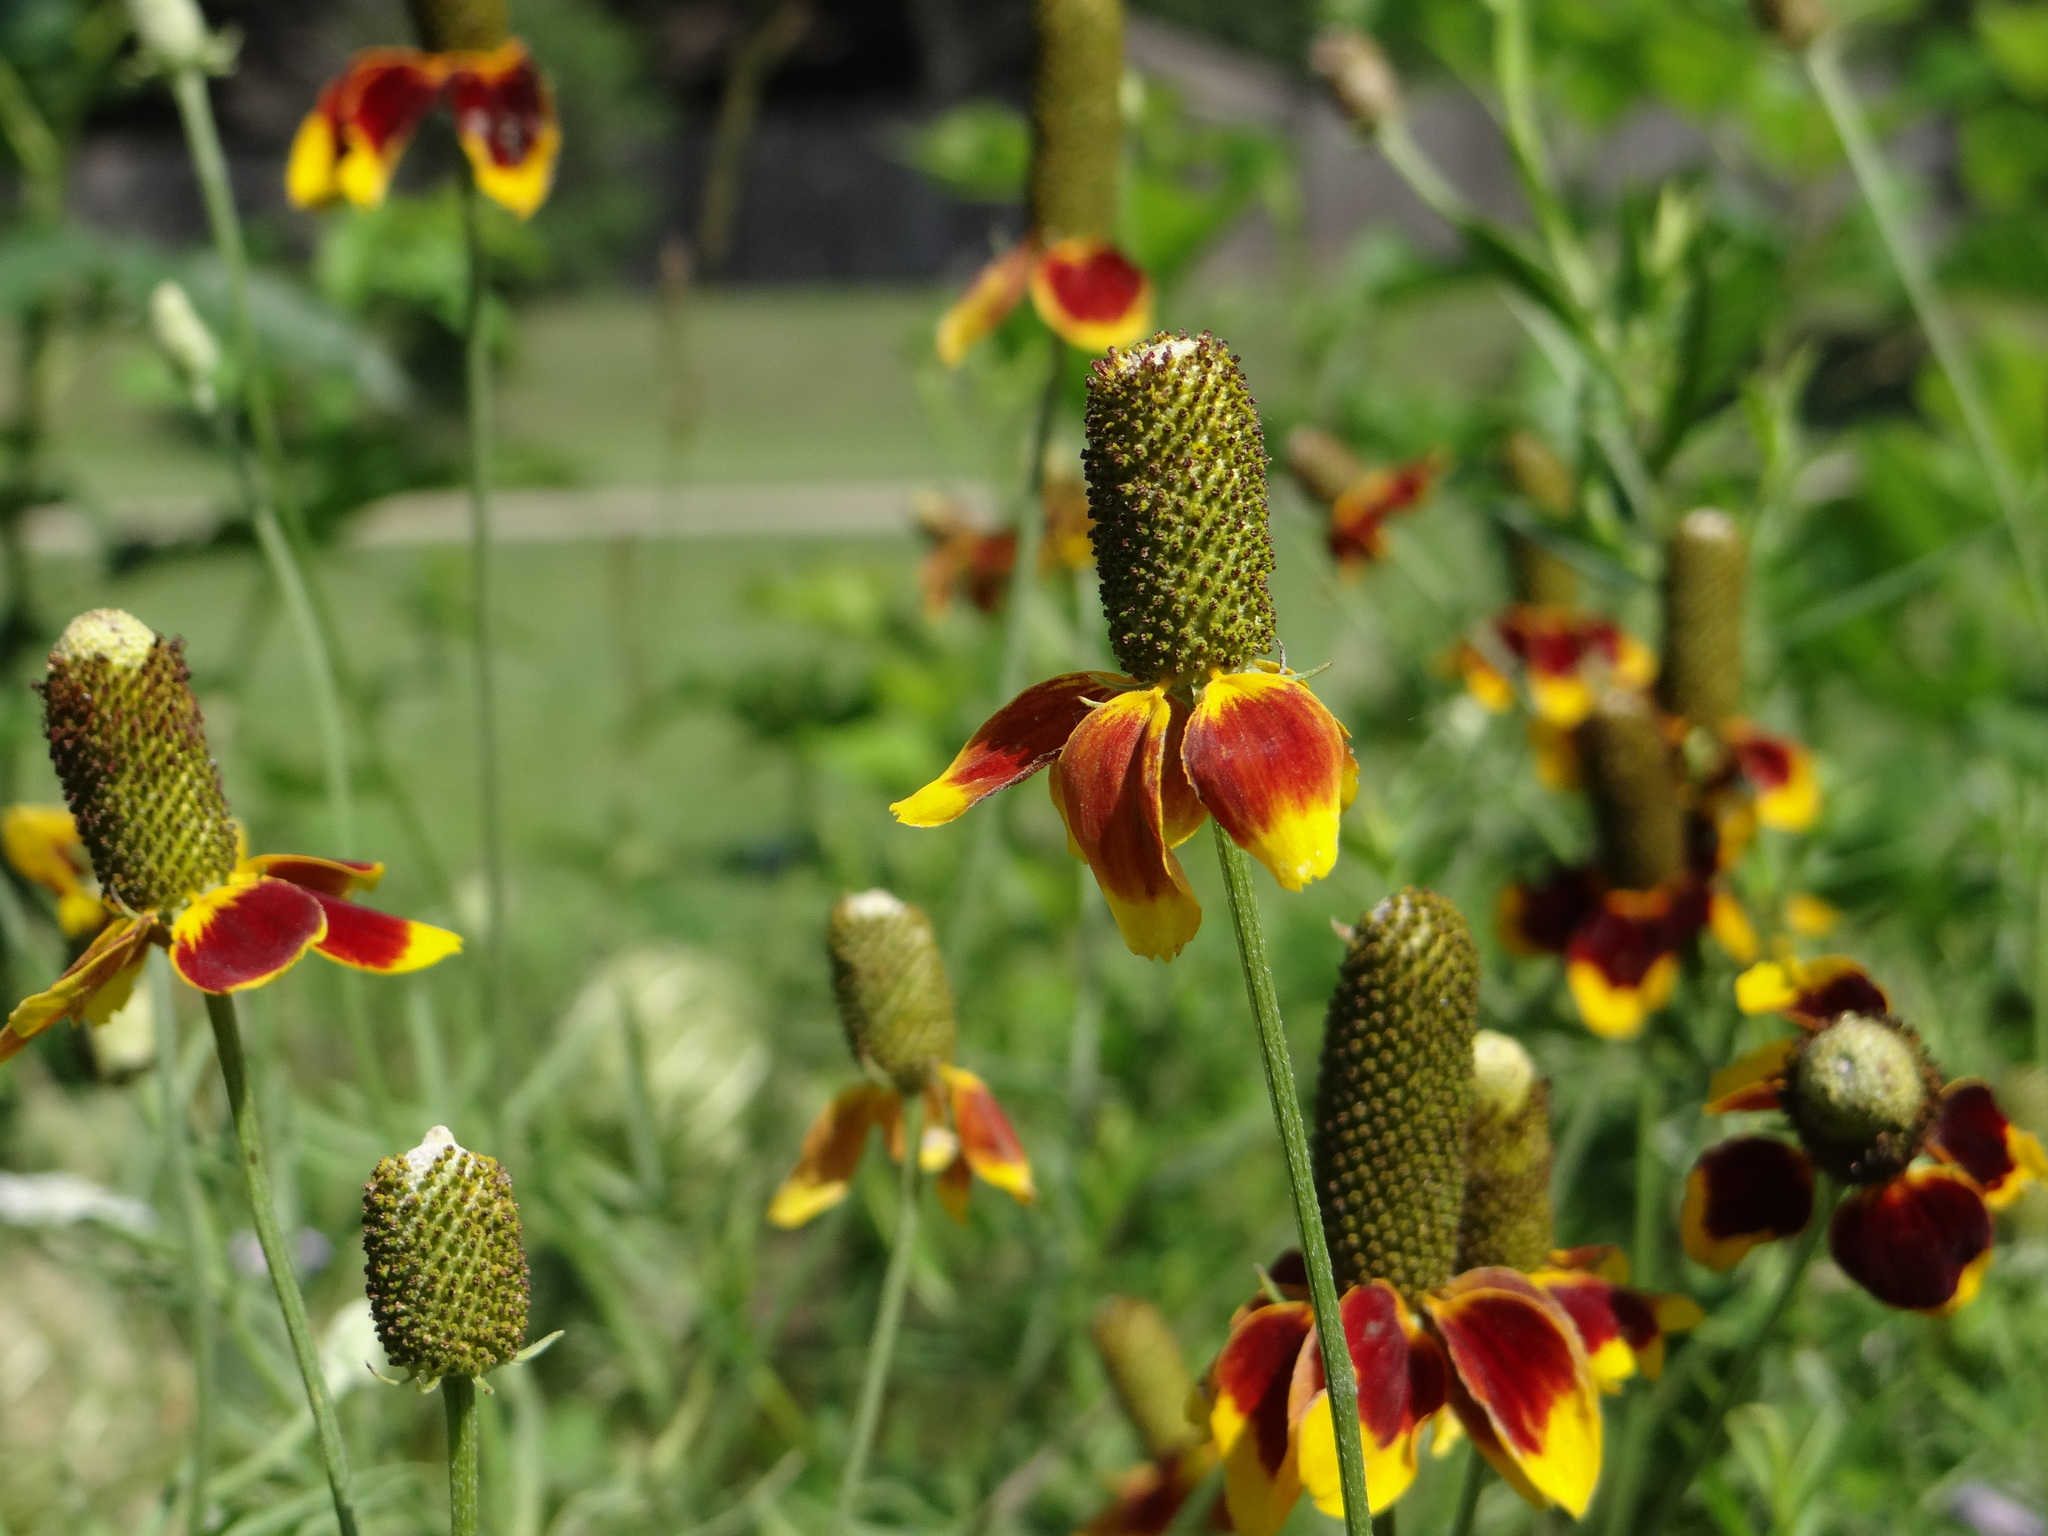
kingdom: Plantae
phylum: Tracheophyta
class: Magnoliopsida
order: Asterales
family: Asteraceae
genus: Ratibida
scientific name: Ratibida columnifera
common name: Prairie coneflower
